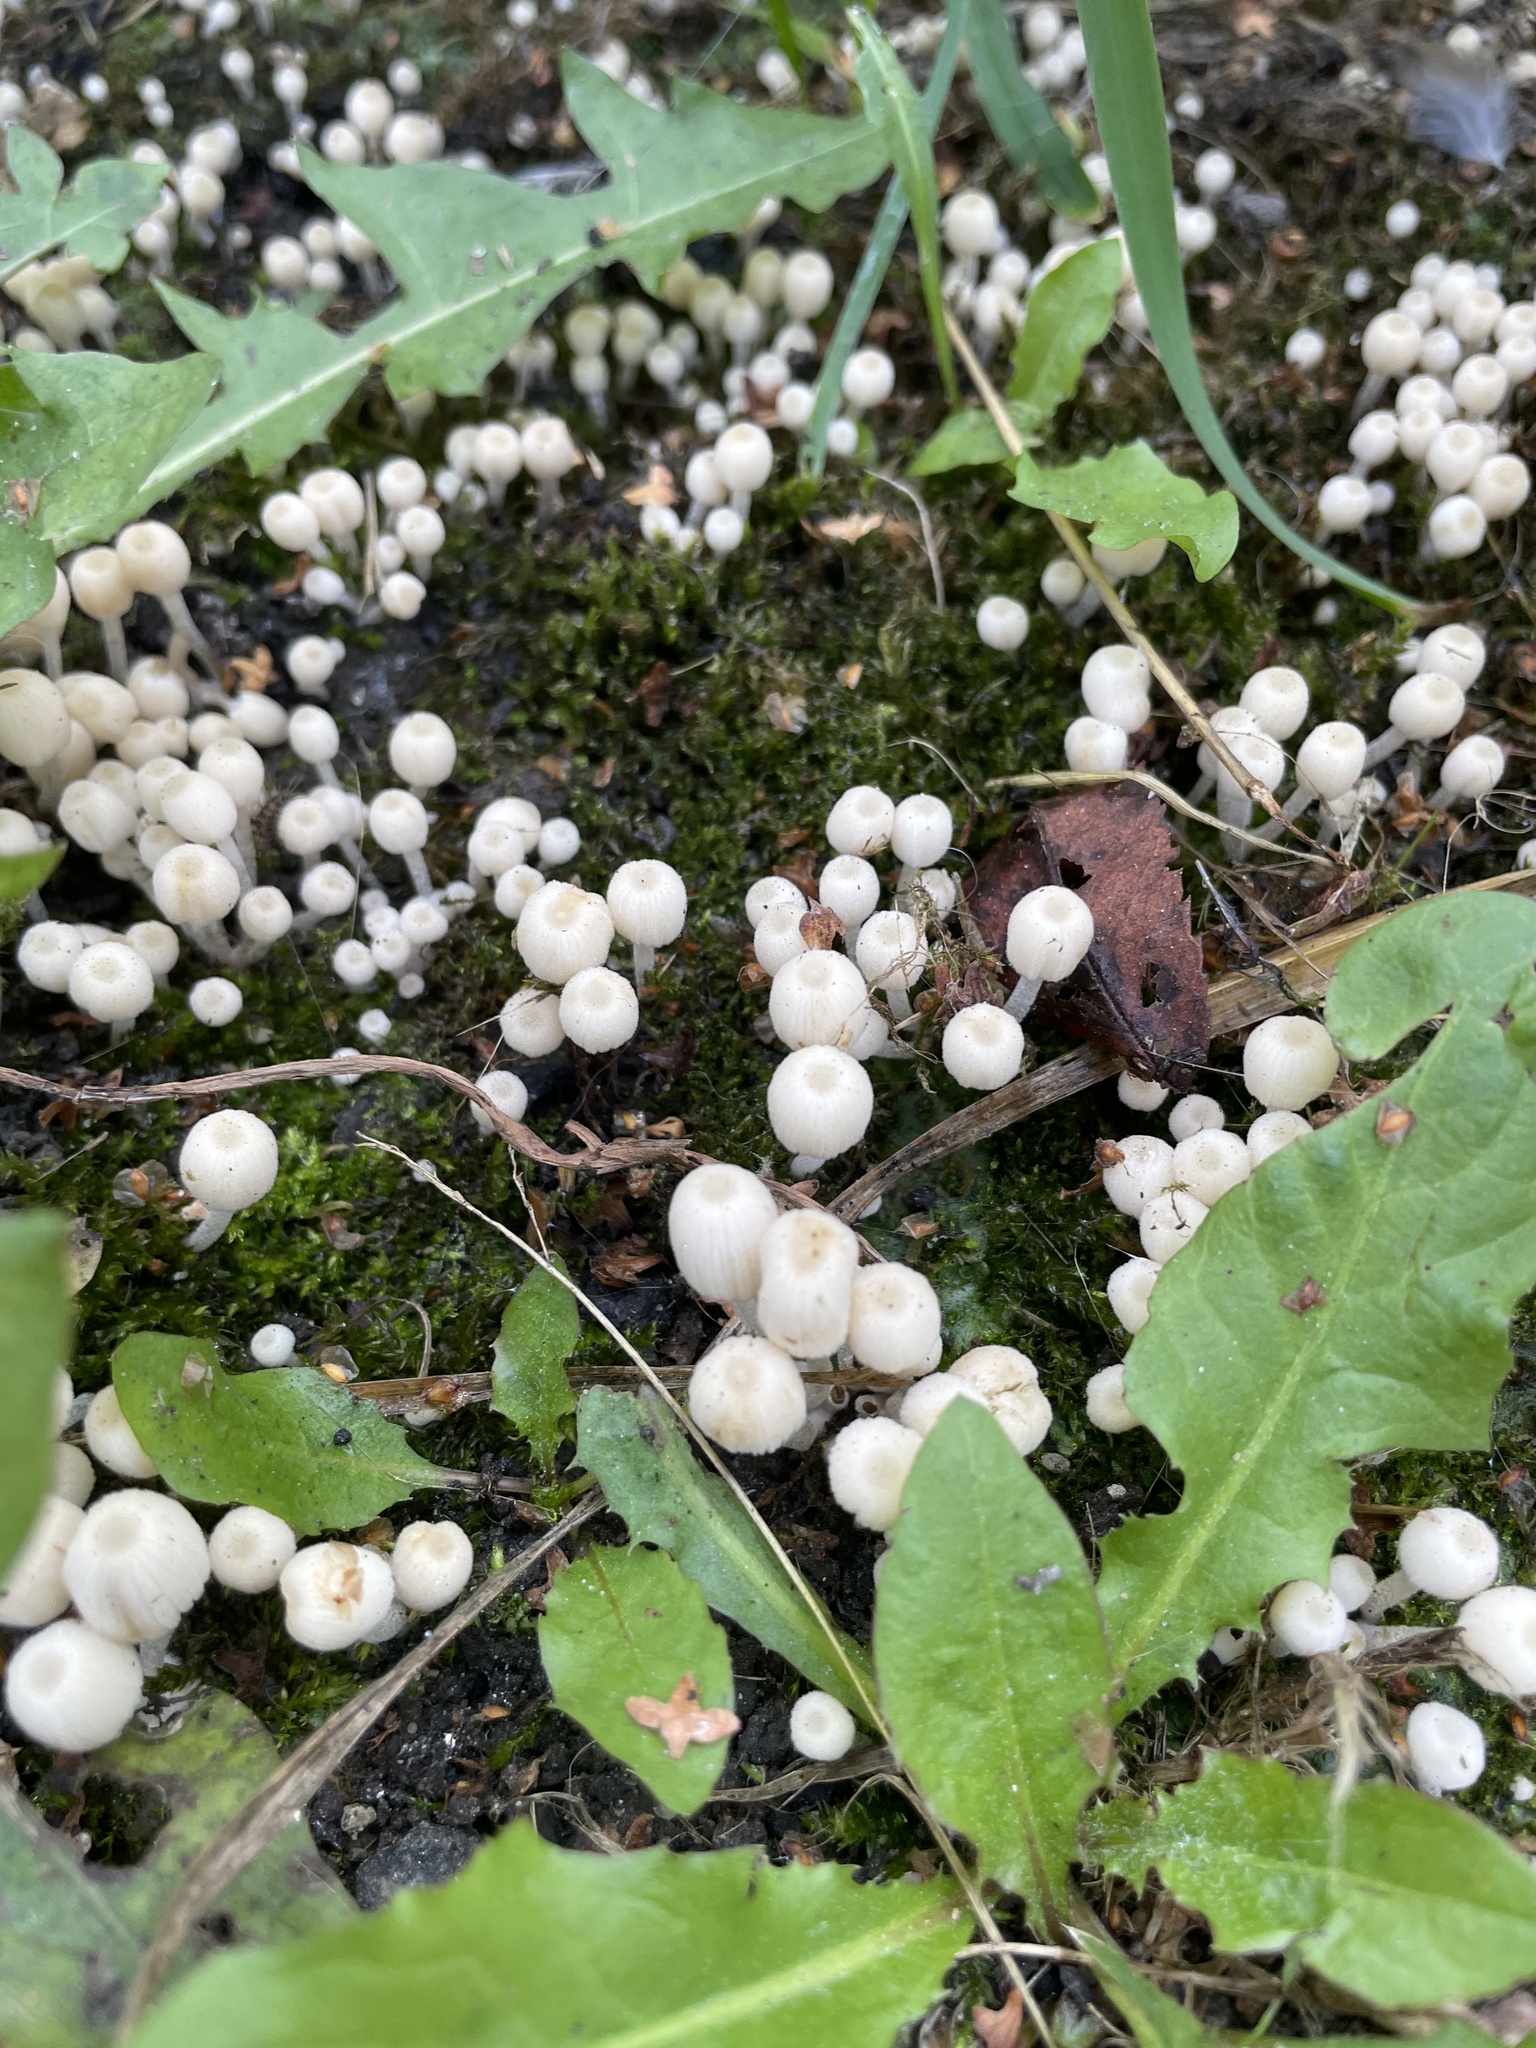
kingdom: Fungi
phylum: Basidiomycota
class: Agaricomycetes
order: Agaricales
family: Psathyrellaceae
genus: Coprinellus
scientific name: Coprinellus disseminatus
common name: Fairies' bonnets
